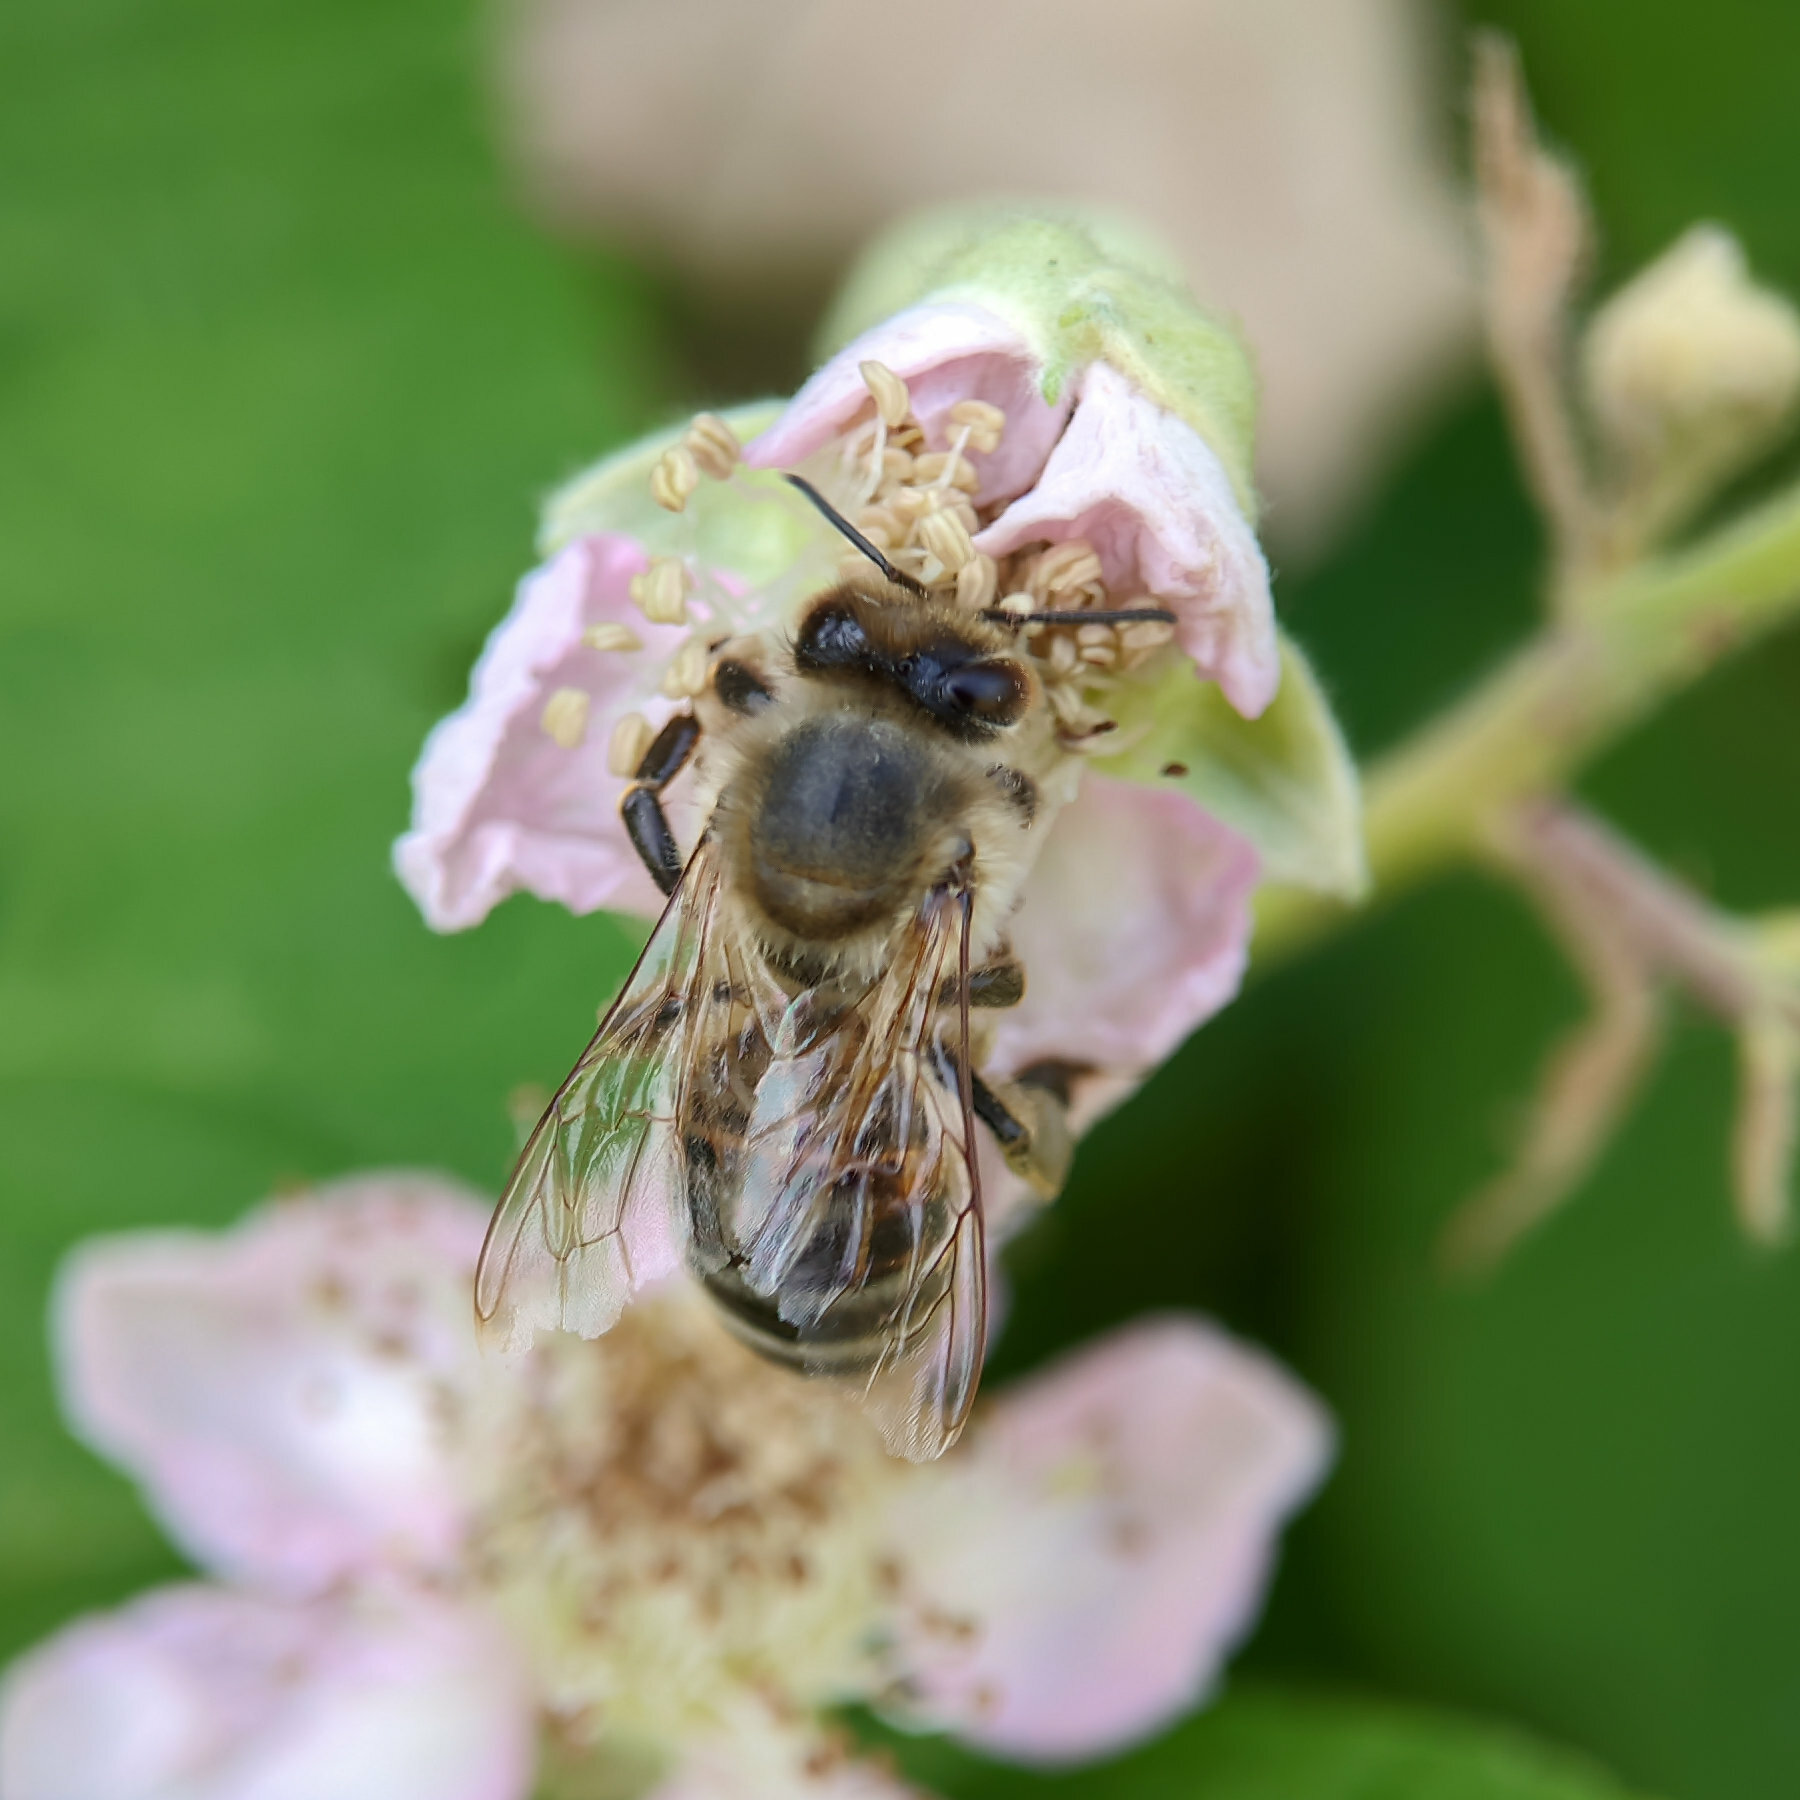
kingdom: Animalia
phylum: Arthropoda
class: Insecta
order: Hymenoptera
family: Apidae
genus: Apis
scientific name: Apis mellifera
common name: Honey bee
